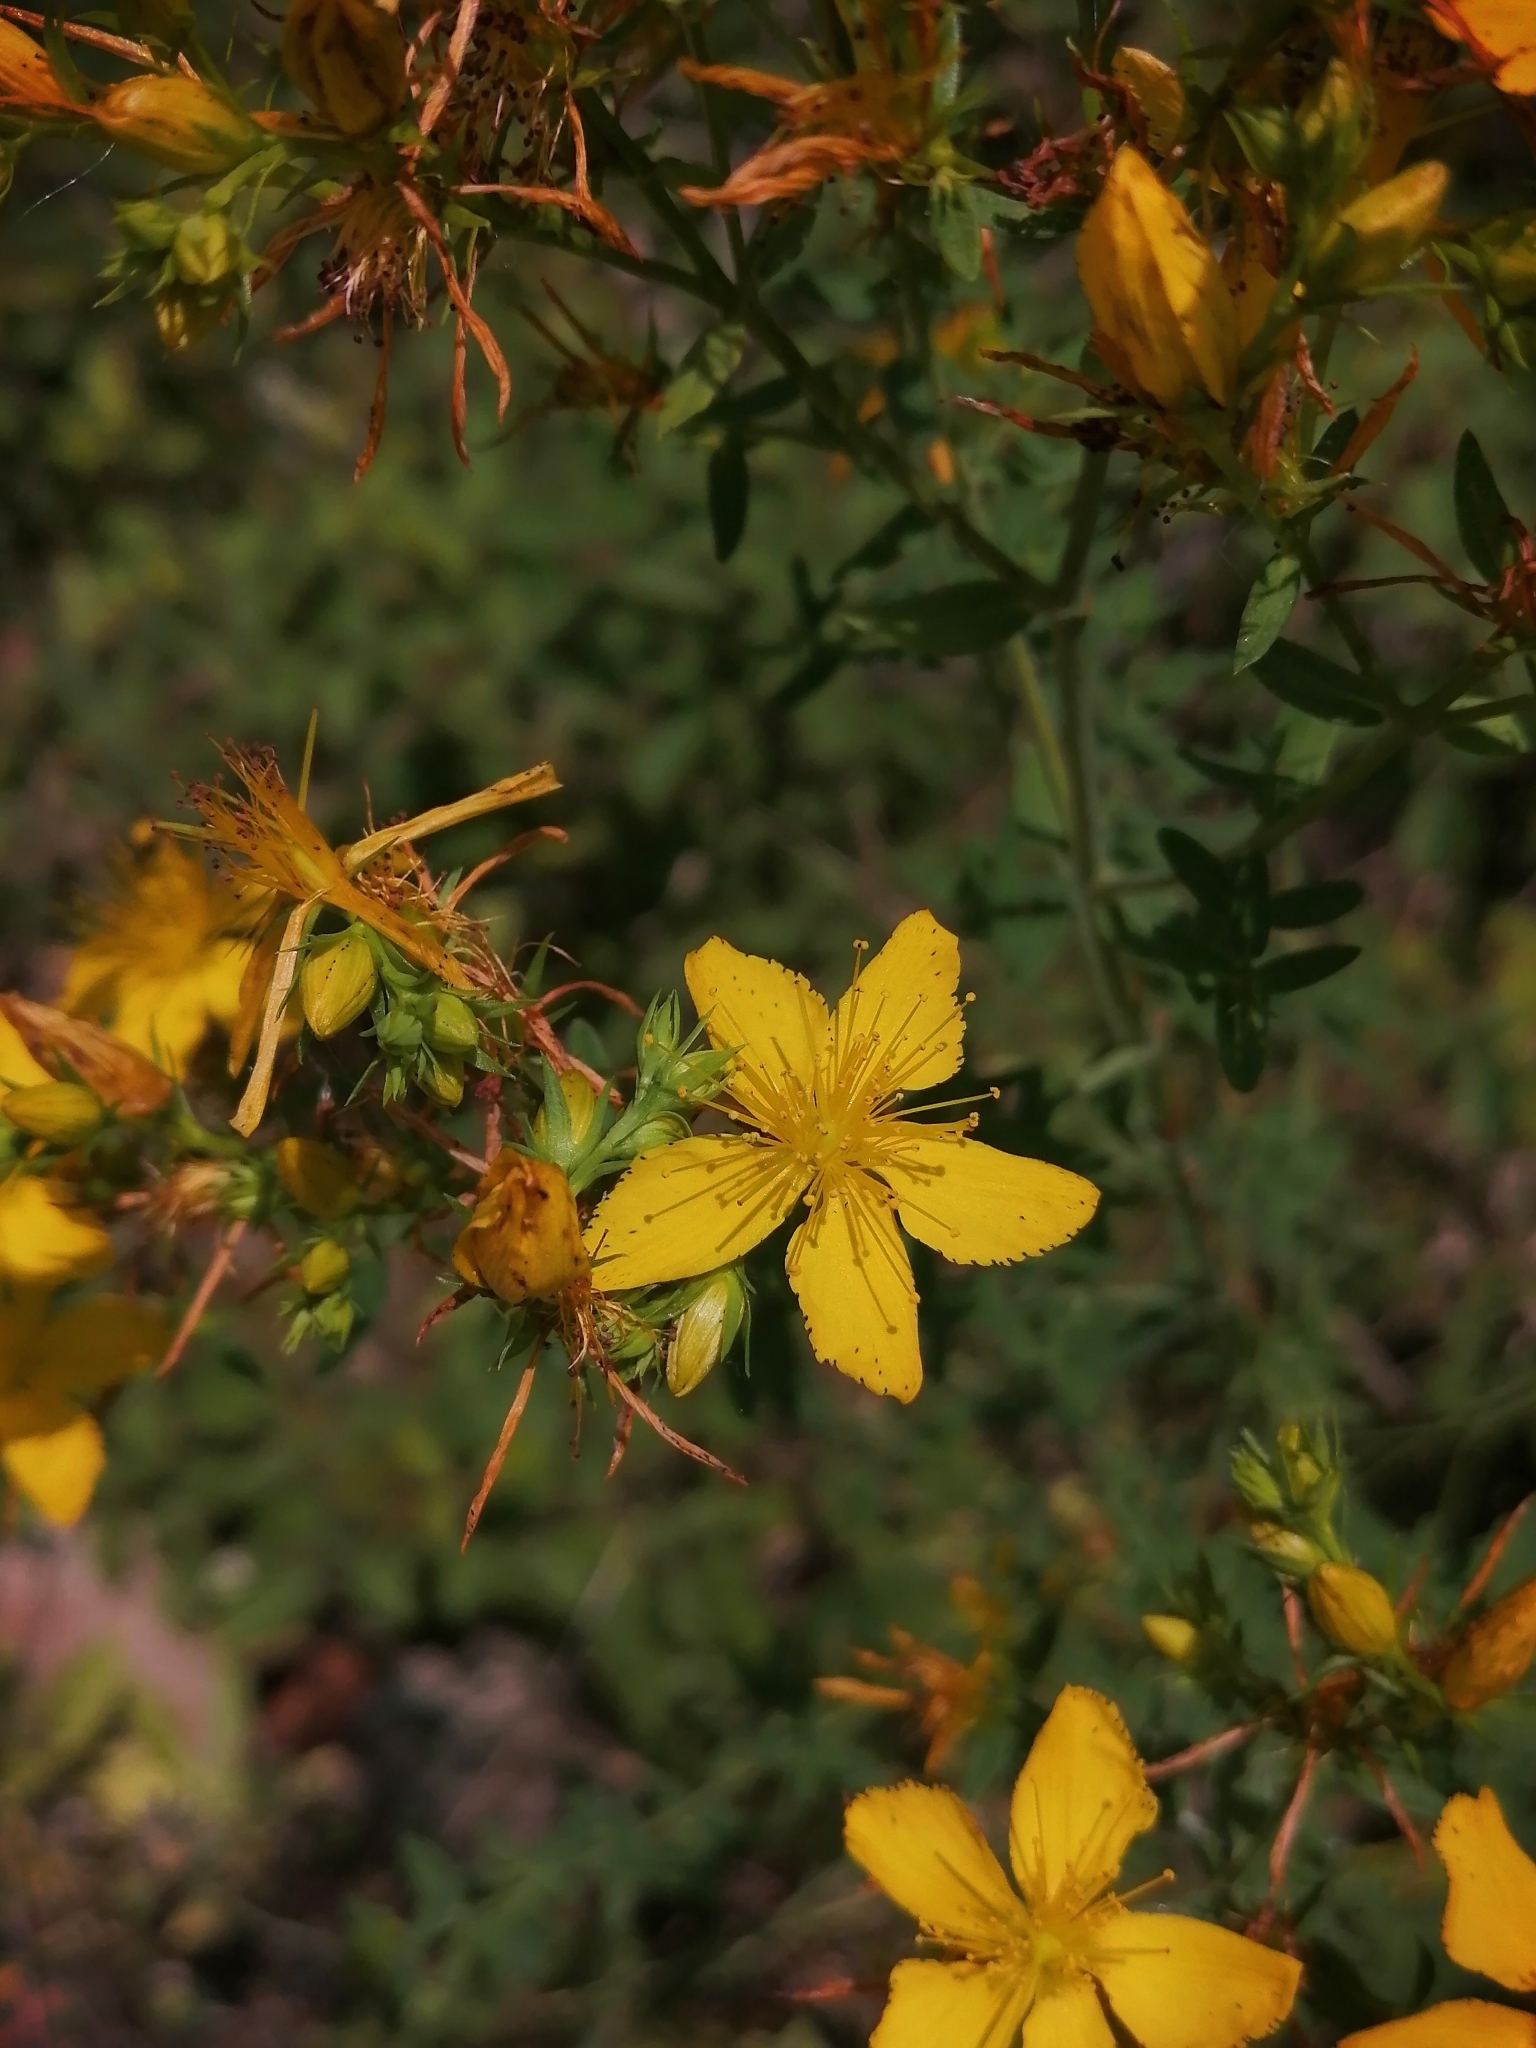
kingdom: Plantae
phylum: Tracheophyta
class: Magnoliopsida
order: Malpighiales
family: Hypericaceae
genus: Hypericum
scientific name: Hypericum perforatum
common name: Common st. johnswort
